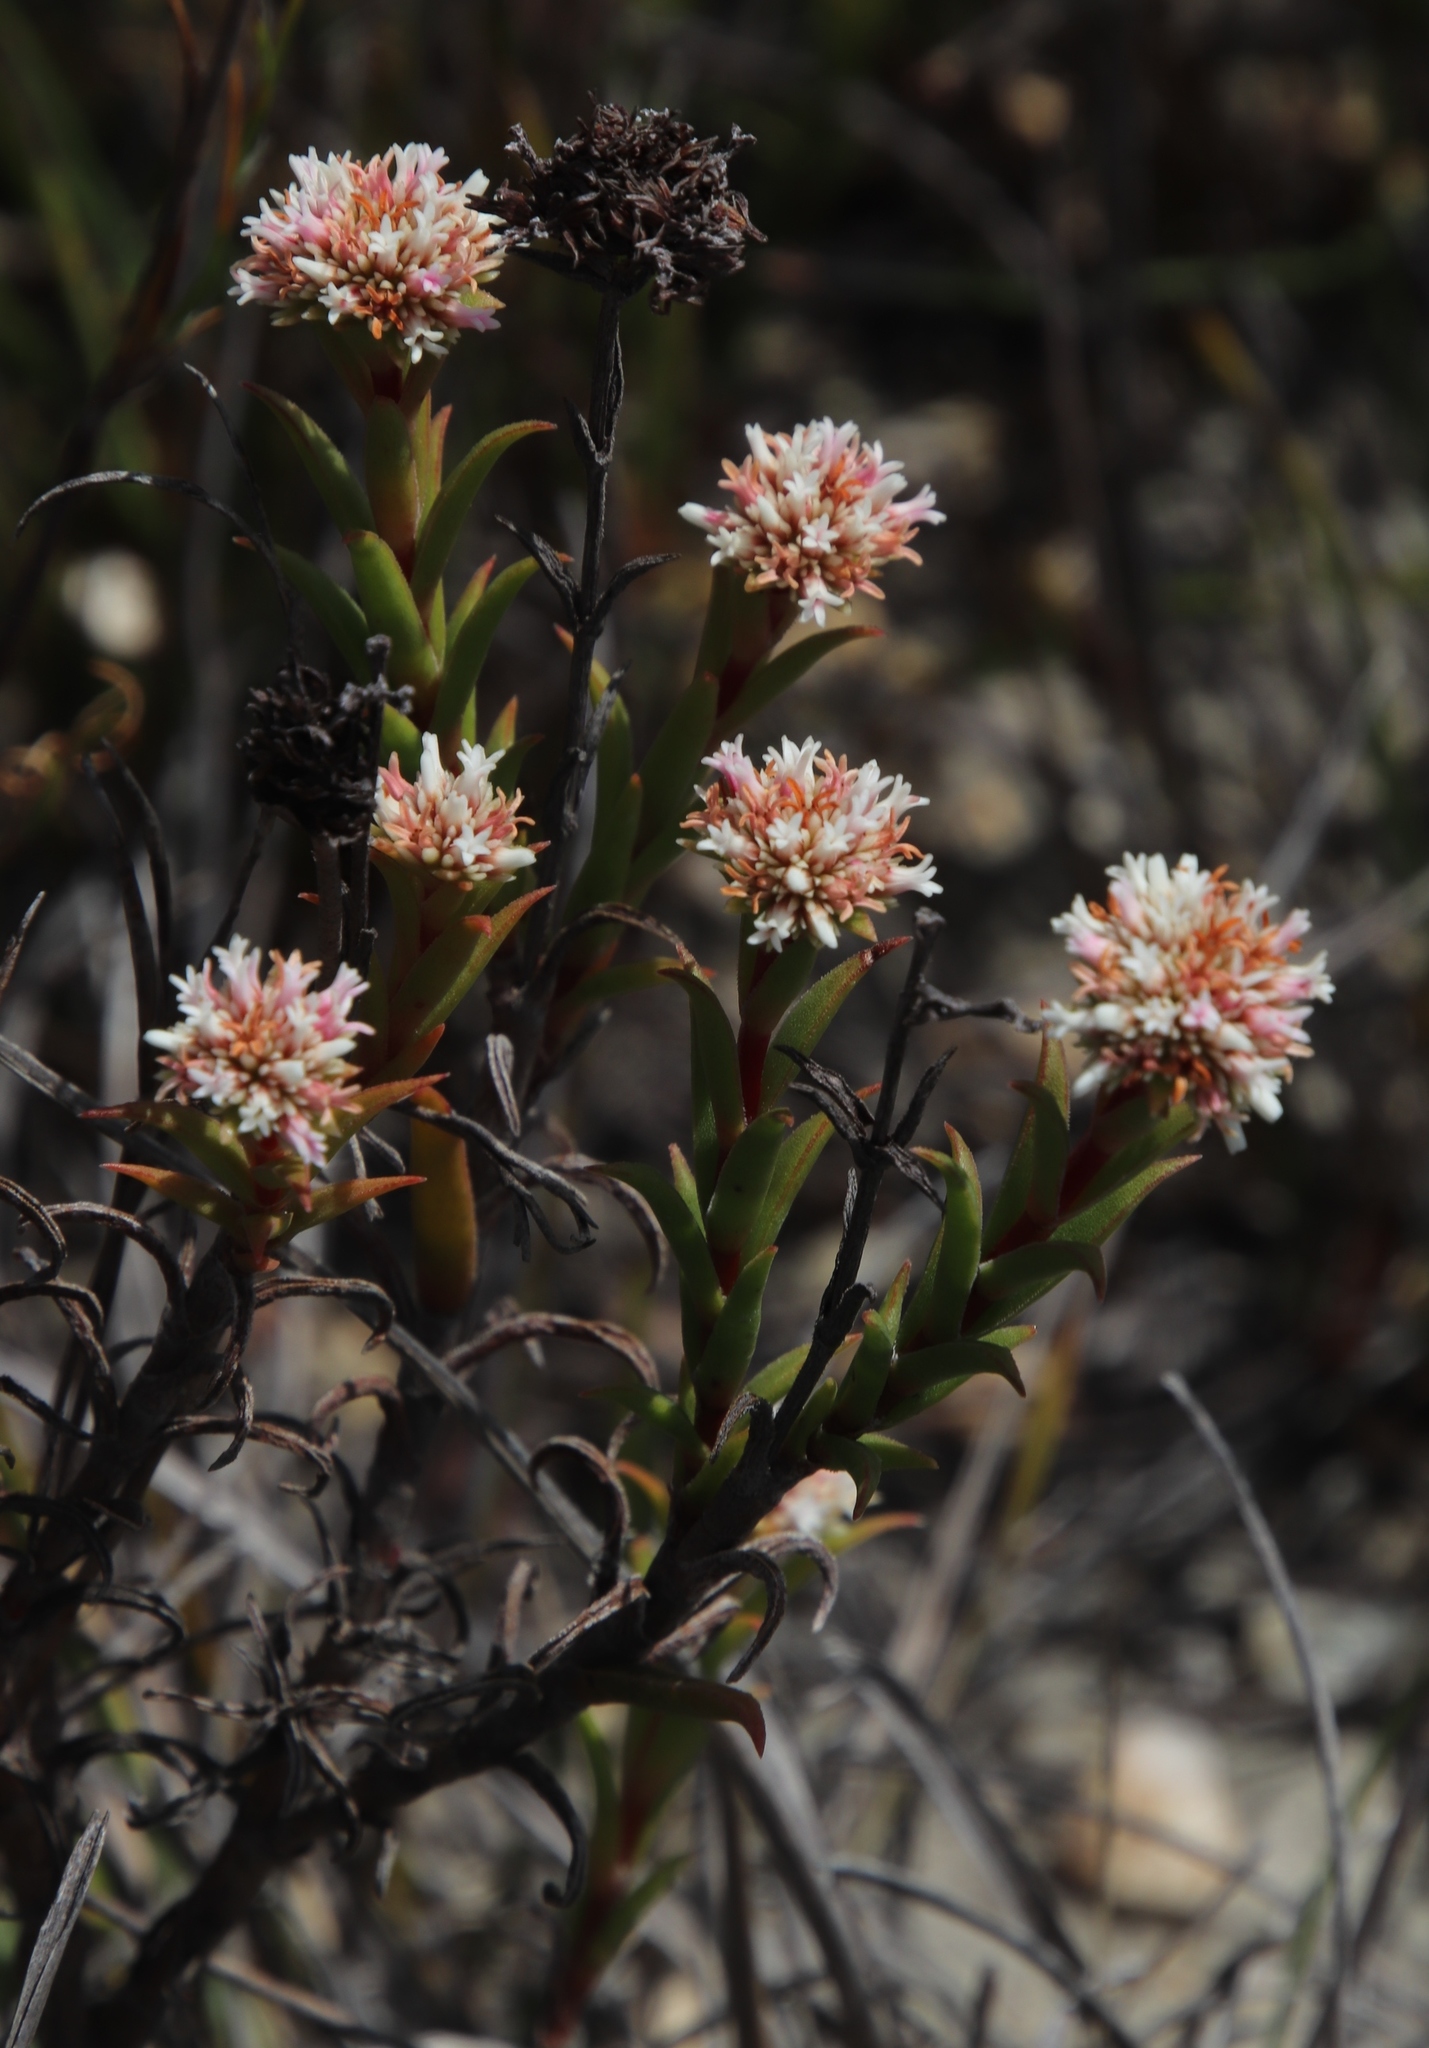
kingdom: Plantae
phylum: Tracheophyta
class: Magnoliopsida
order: Saxifragales
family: Crassulaceae
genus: Crassula
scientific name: Crassula subulata
